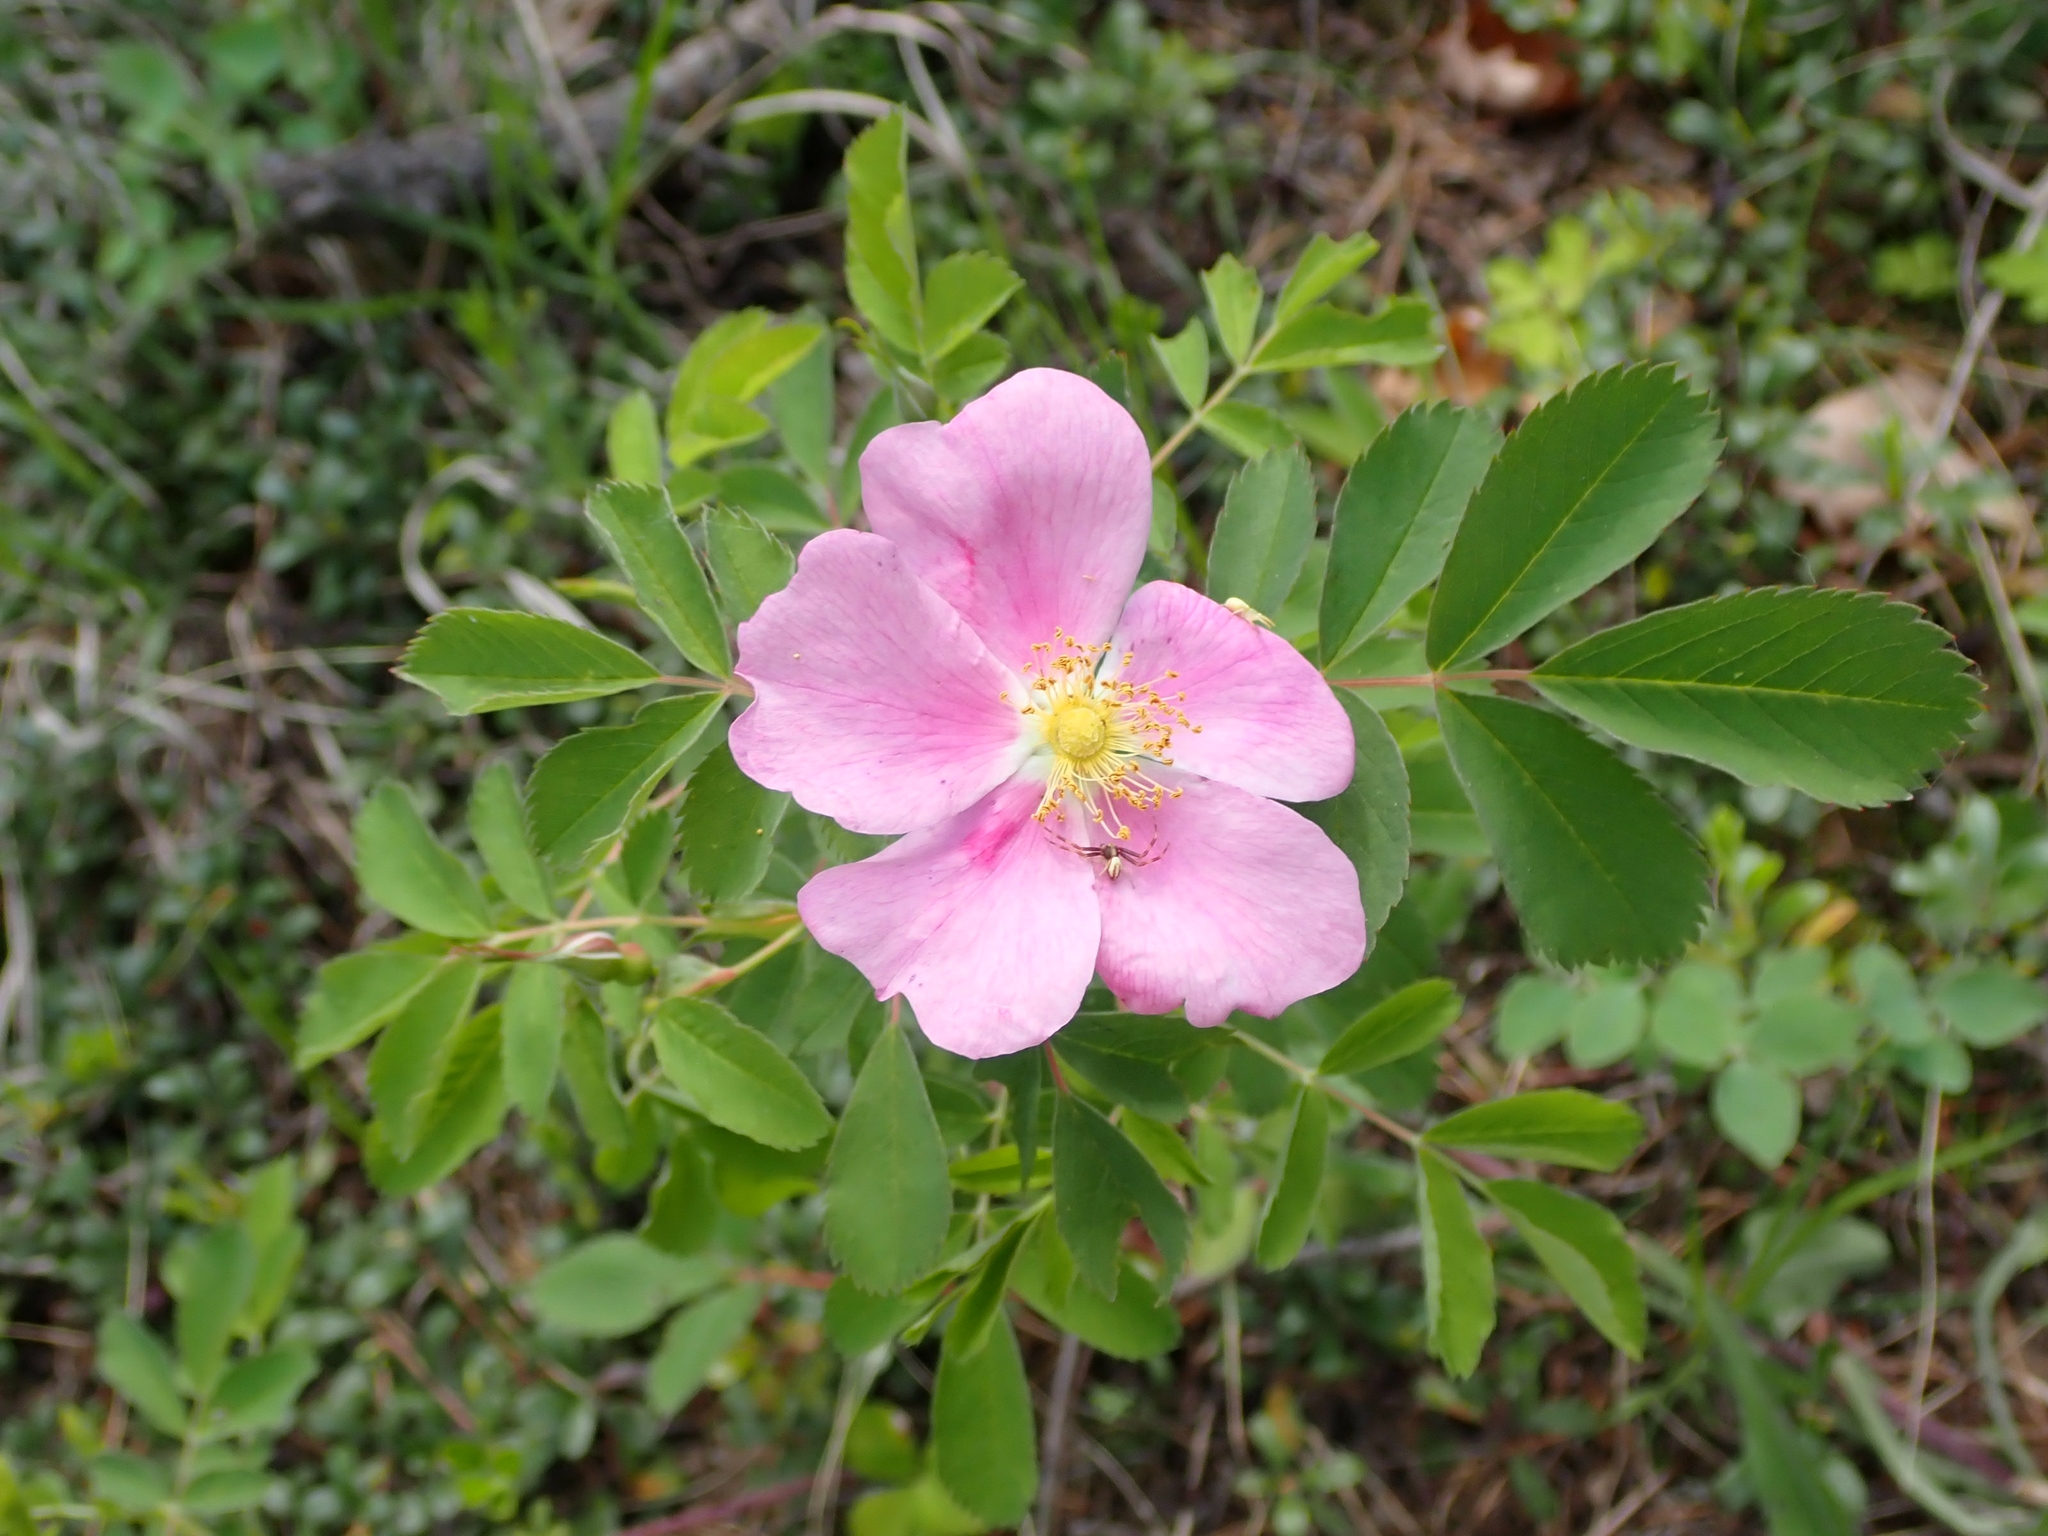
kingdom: Plantae
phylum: Tracheophyta
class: Magnoliopsida
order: Rosales
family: Rosaceae
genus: Rosa
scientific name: Rosa woodsii
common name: Woods's rose
